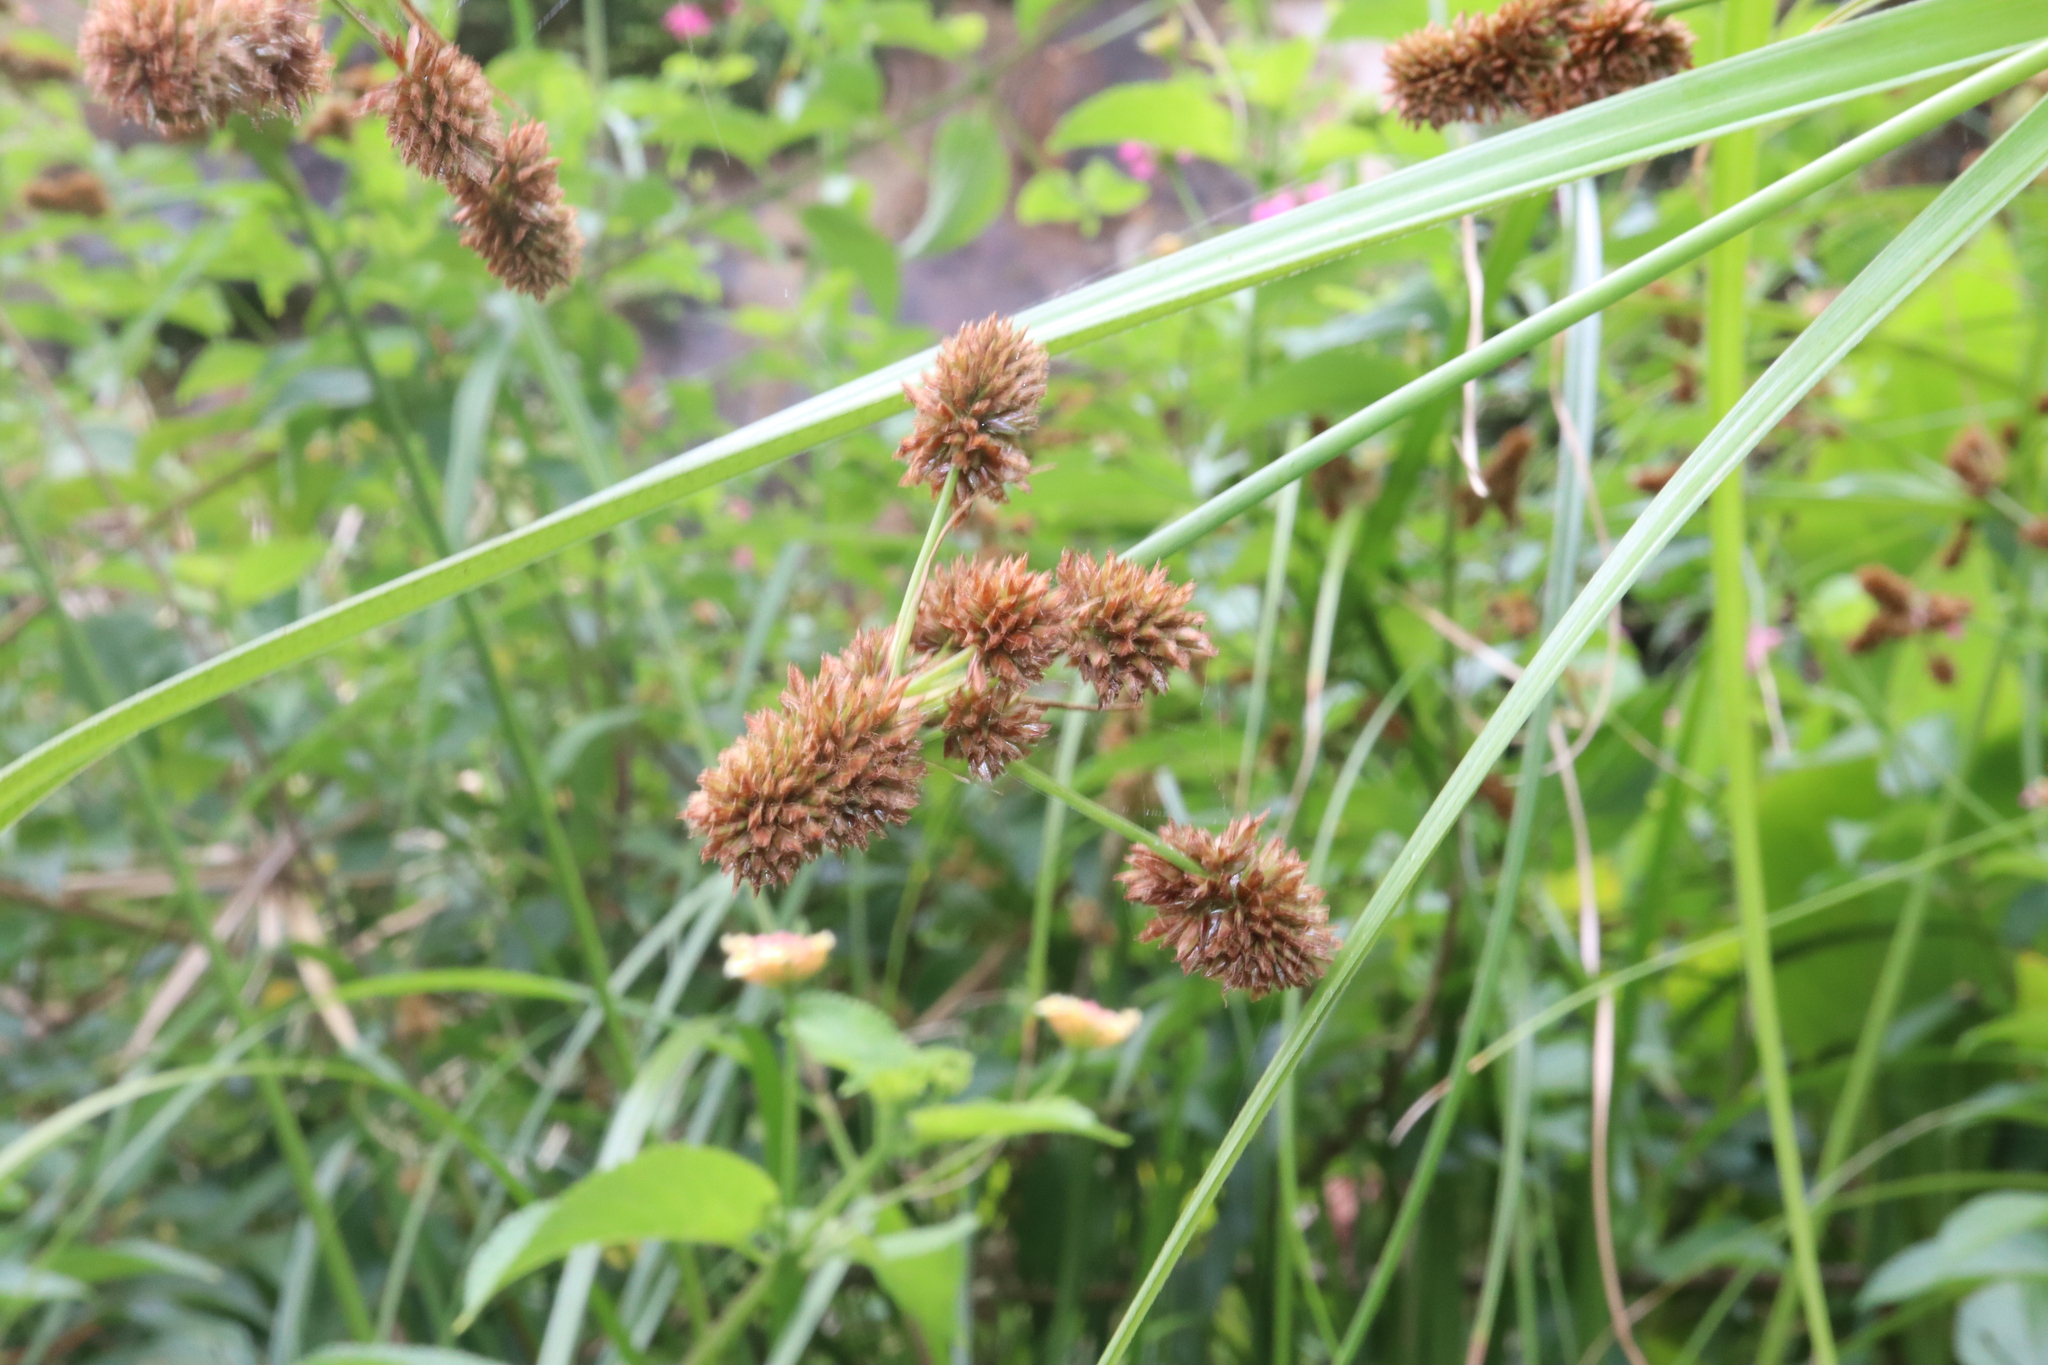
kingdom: Plantae
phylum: Tracheophyta
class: Liliopsida
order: Poales
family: Cyperaceae
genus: Cyperus
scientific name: Cyperus vorsteri
